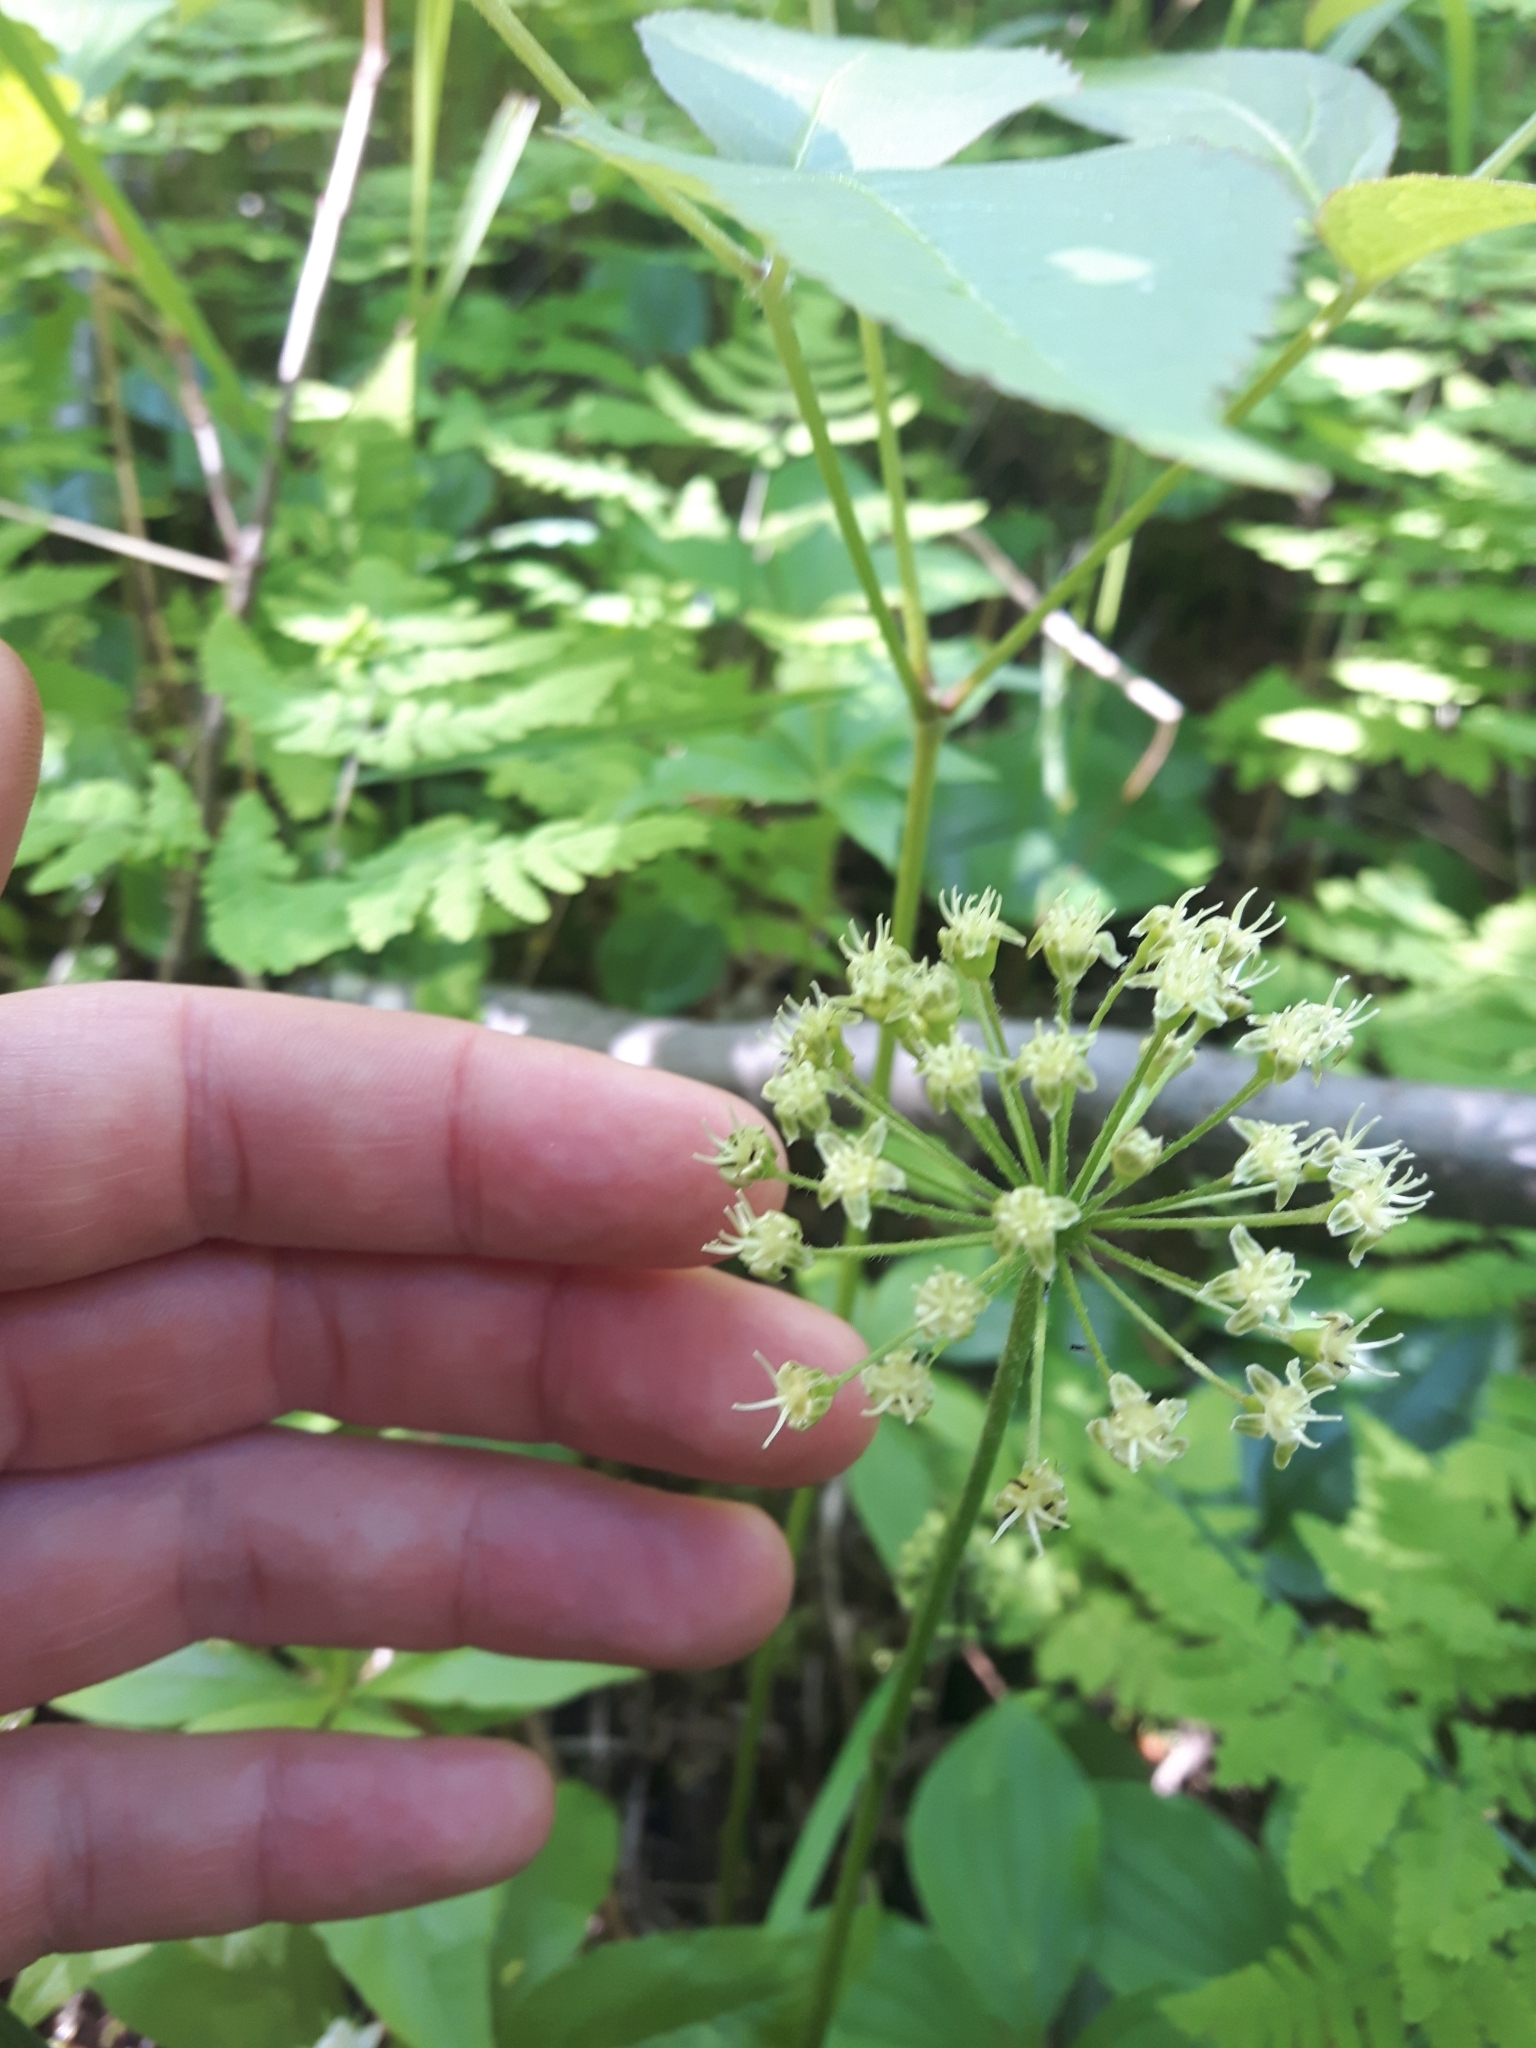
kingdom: Plantae
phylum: Tracheophyta
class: Magnoliopsida
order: Apiales
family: Araliaceae
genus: Aralia
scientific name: Aralia nudicaulis
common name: Wild sarsaparilla
